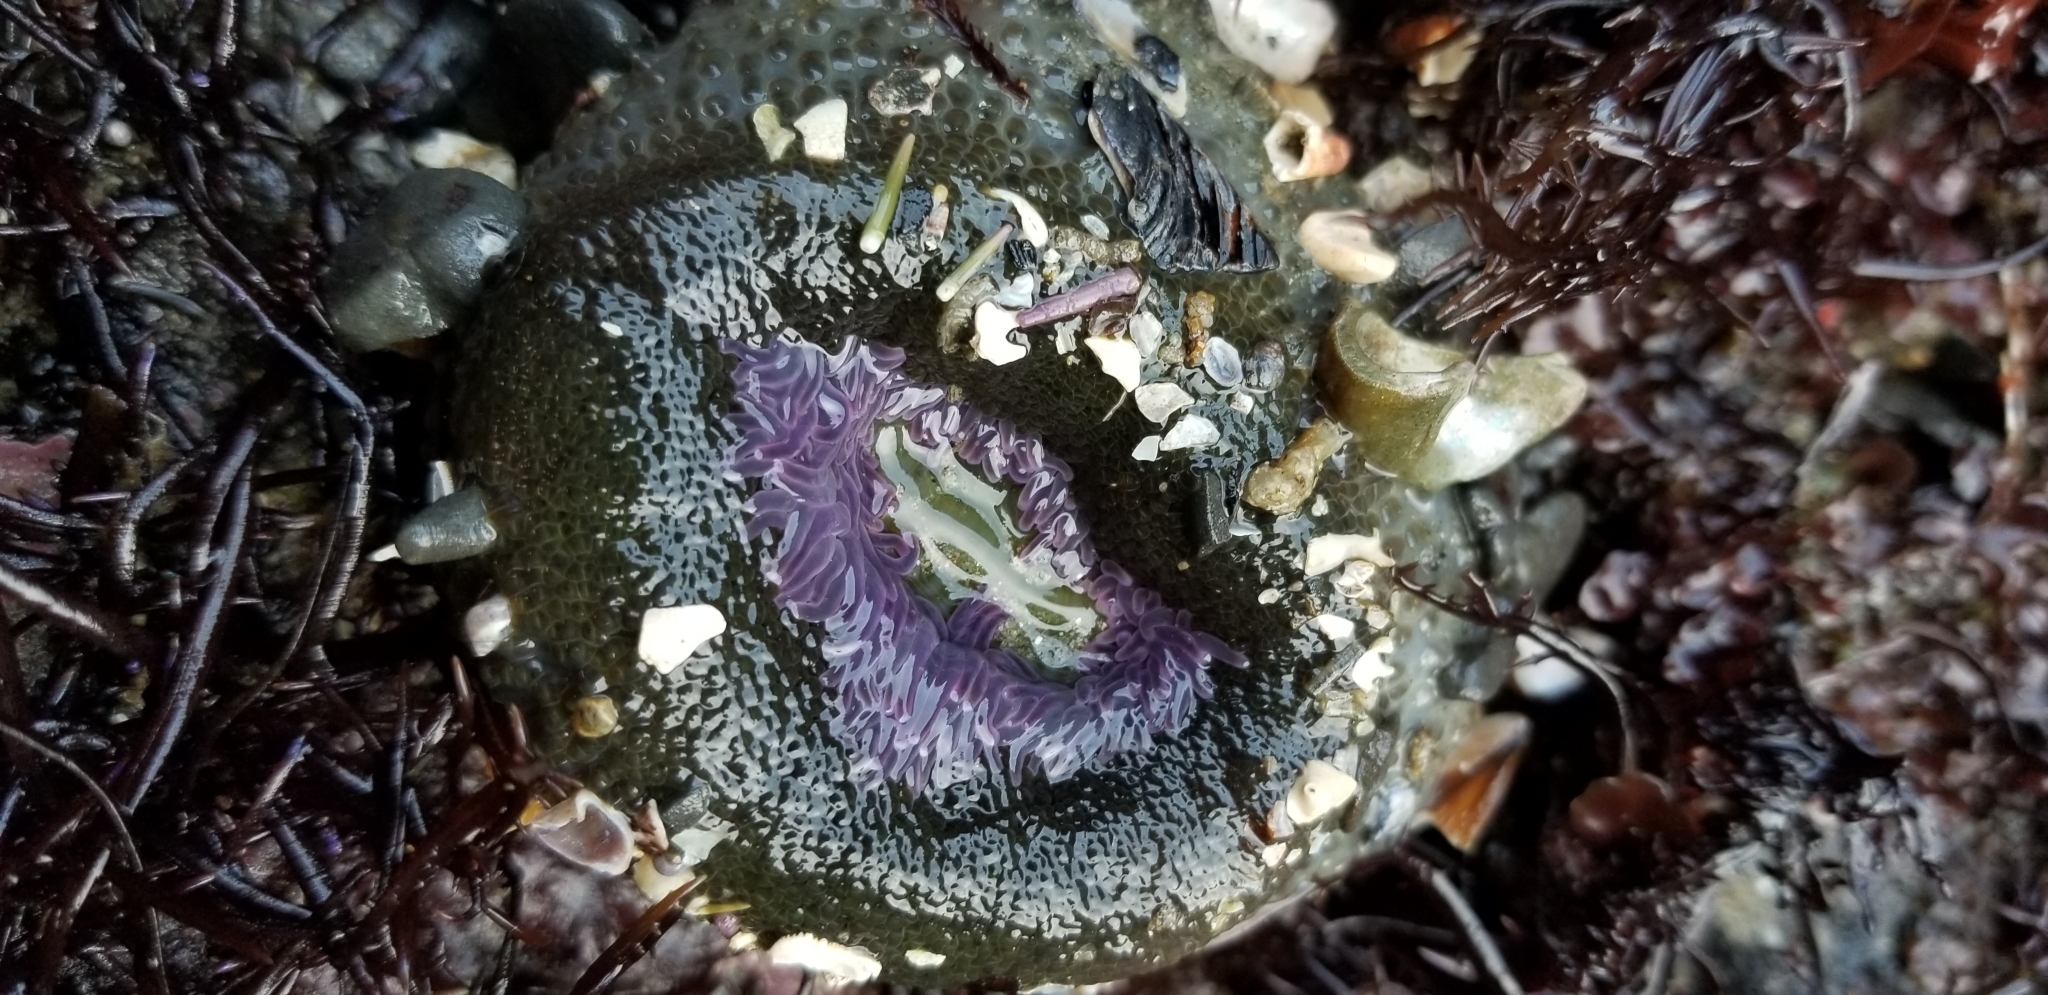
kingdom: Animalia
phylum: Cnidaria
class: Anthozoa
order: Actiniaria
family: Actiniidae
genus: Anthopleura
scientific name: Anthopleura elegantissima
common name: Clonal anemone
